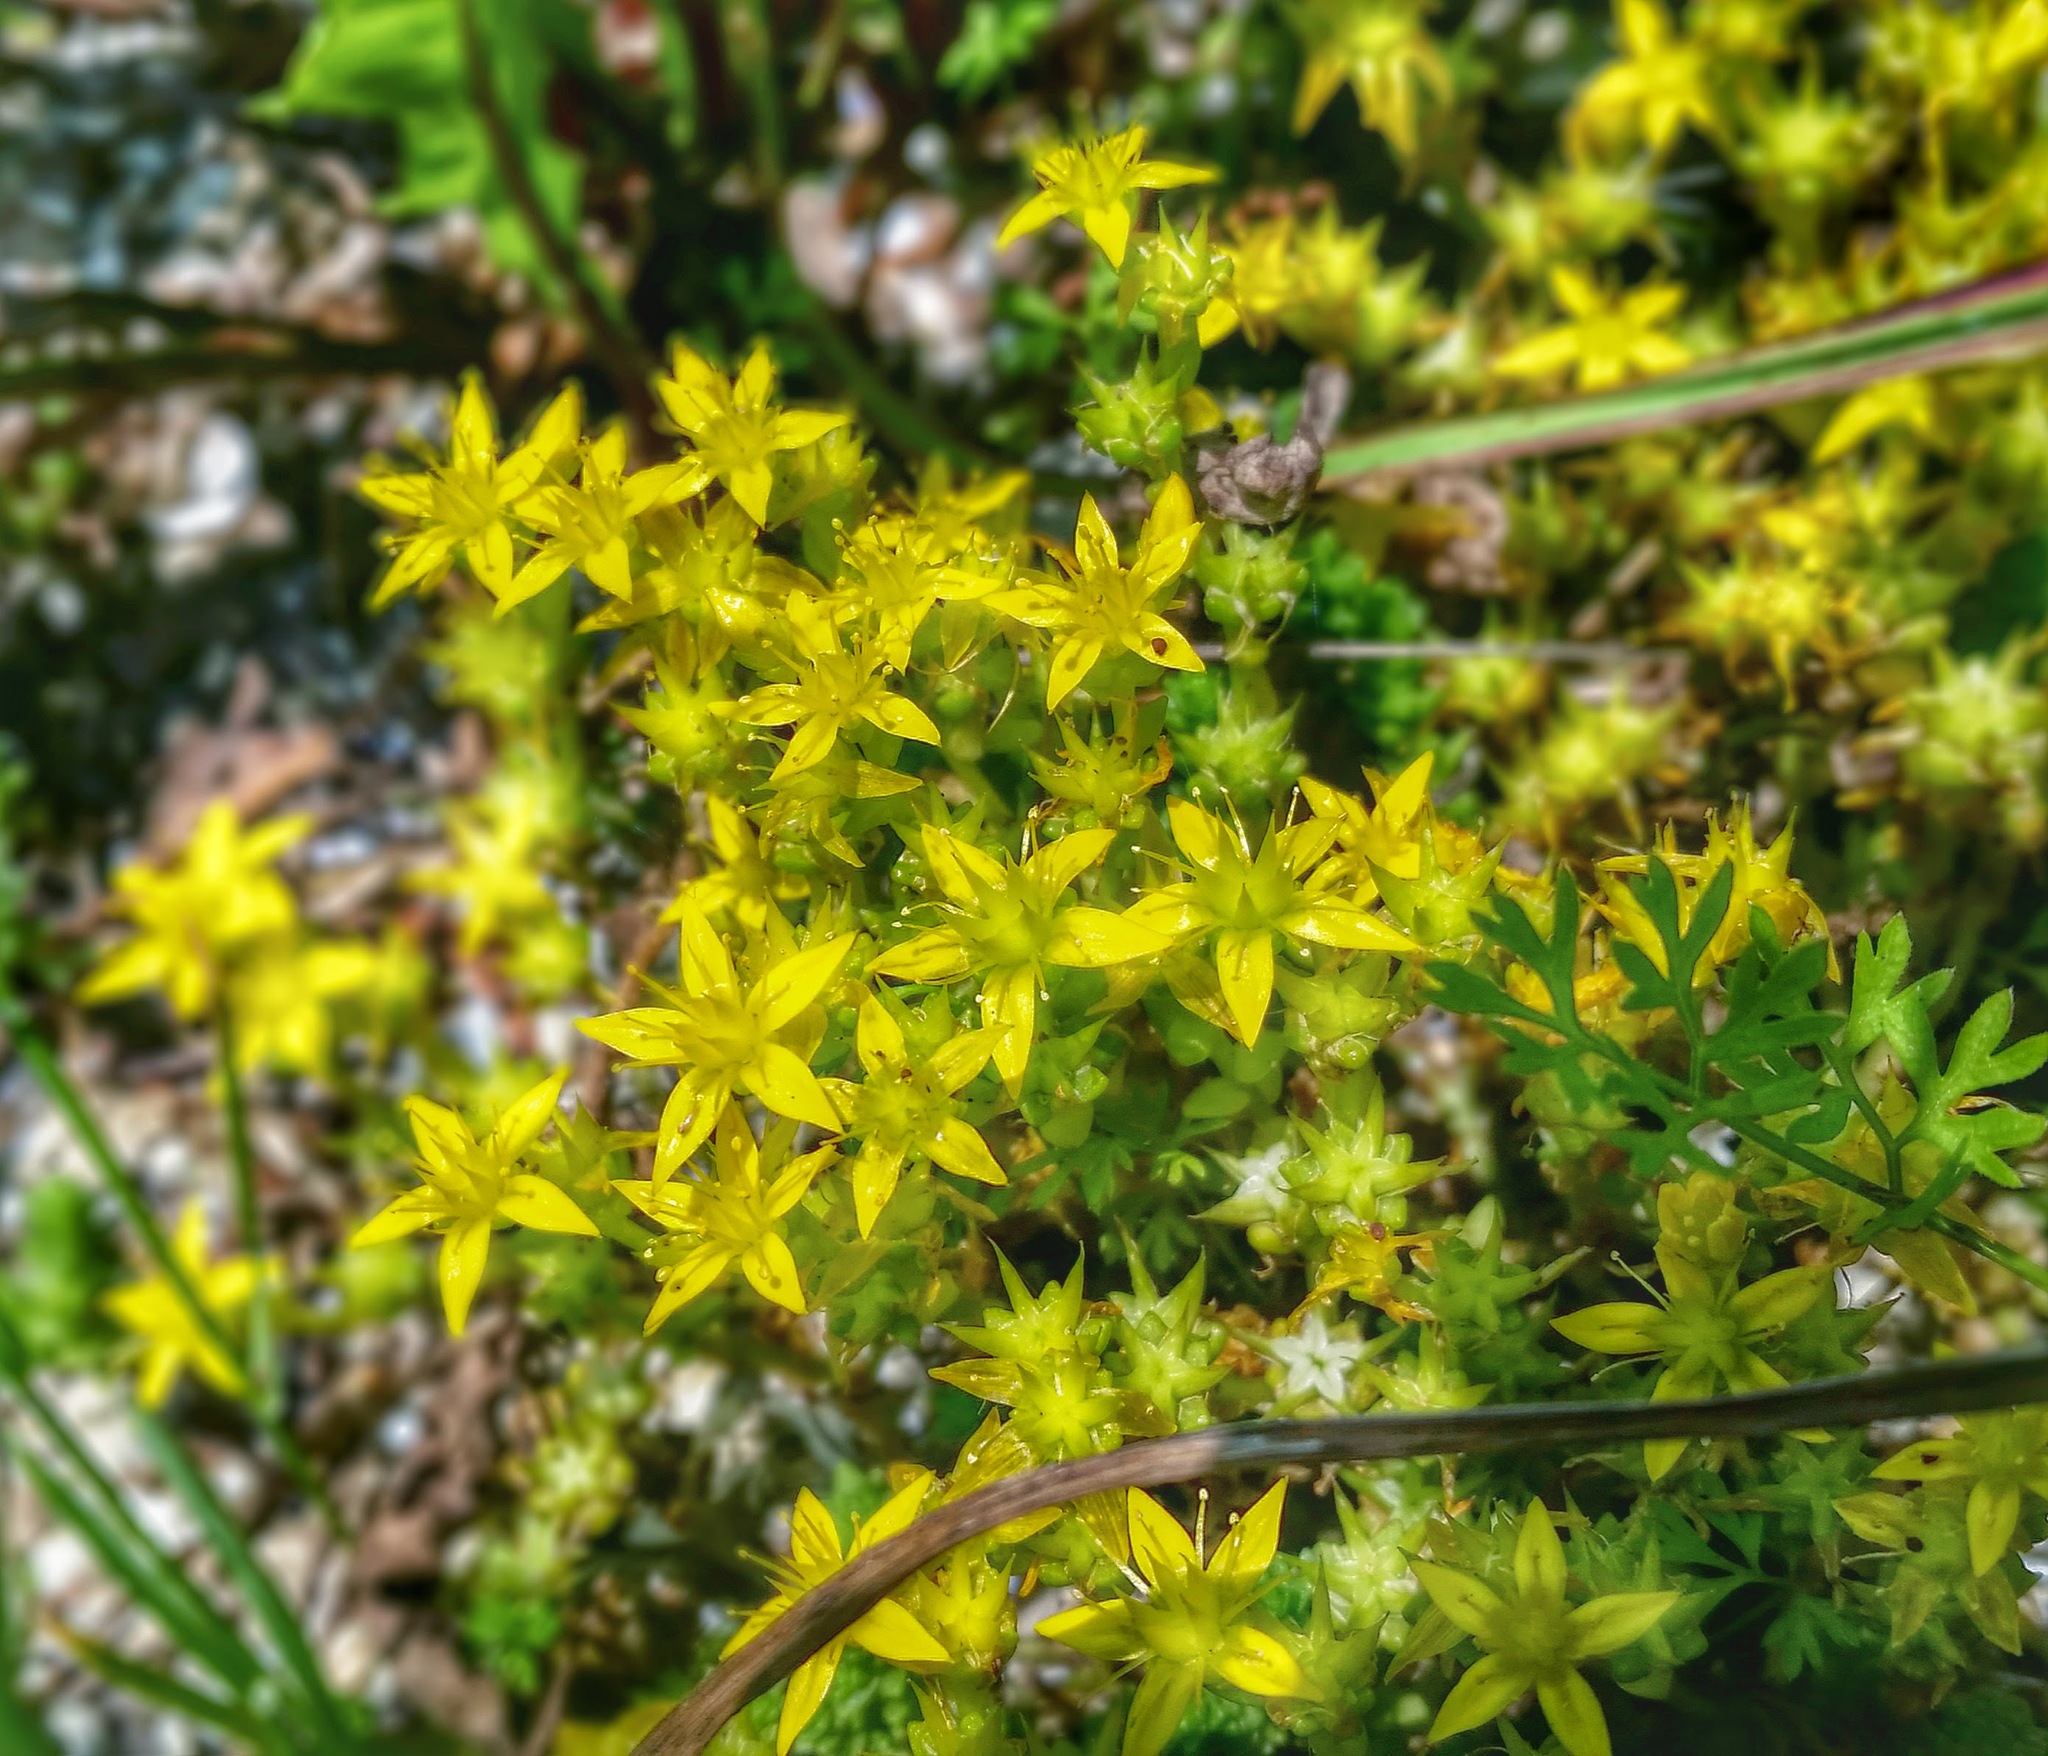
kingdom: Plantae
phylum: Tracheophyta
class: Magnoliopsida
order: Saxifragales
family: Crassulaceae
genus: Sedum
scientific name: Sedum acre
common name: Biting stonecrop
